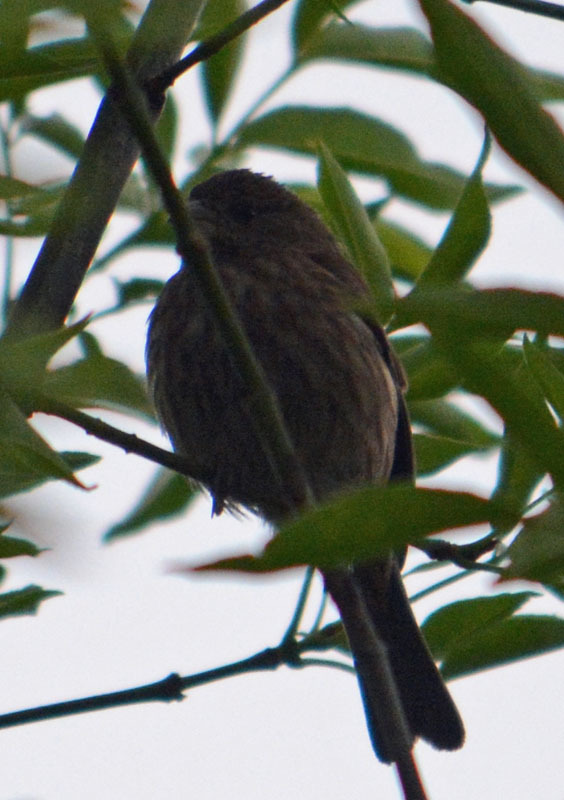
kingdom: Animalia
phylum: Chordata
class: Aves
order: Passeriformes
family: Fringillidae
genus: Haemorhous
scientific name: Haemorhous mexicanus
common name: House finch
